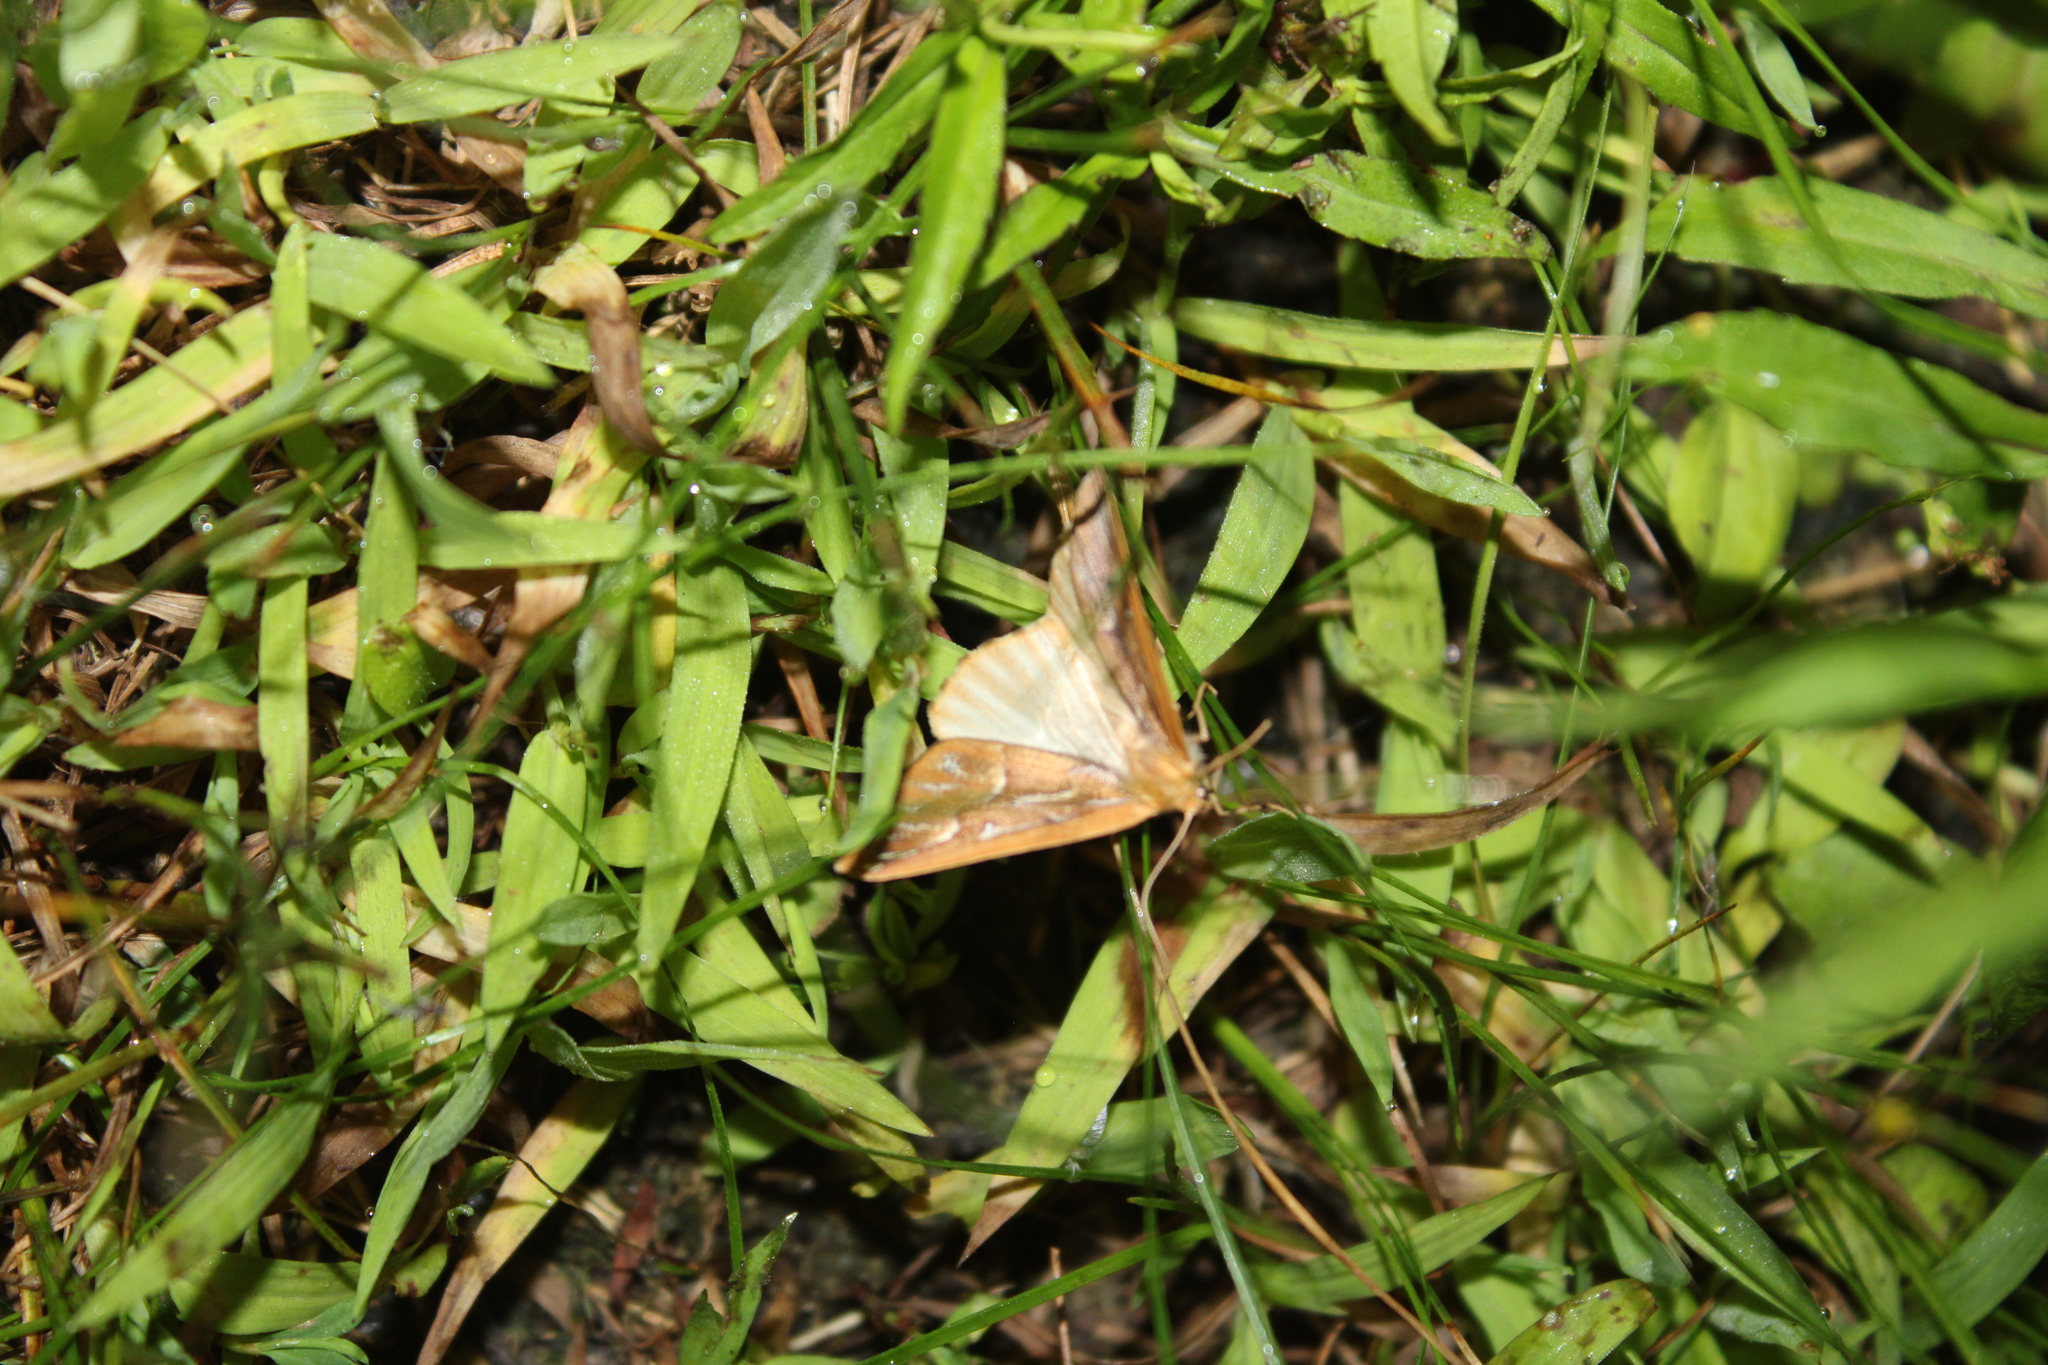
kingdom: Animalia
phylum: Arthropoda
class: Insecta
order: Lepidoptera
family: Geometridae
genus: Caripeta
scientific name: Caripeta piniata
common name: Northern pine looper moth
